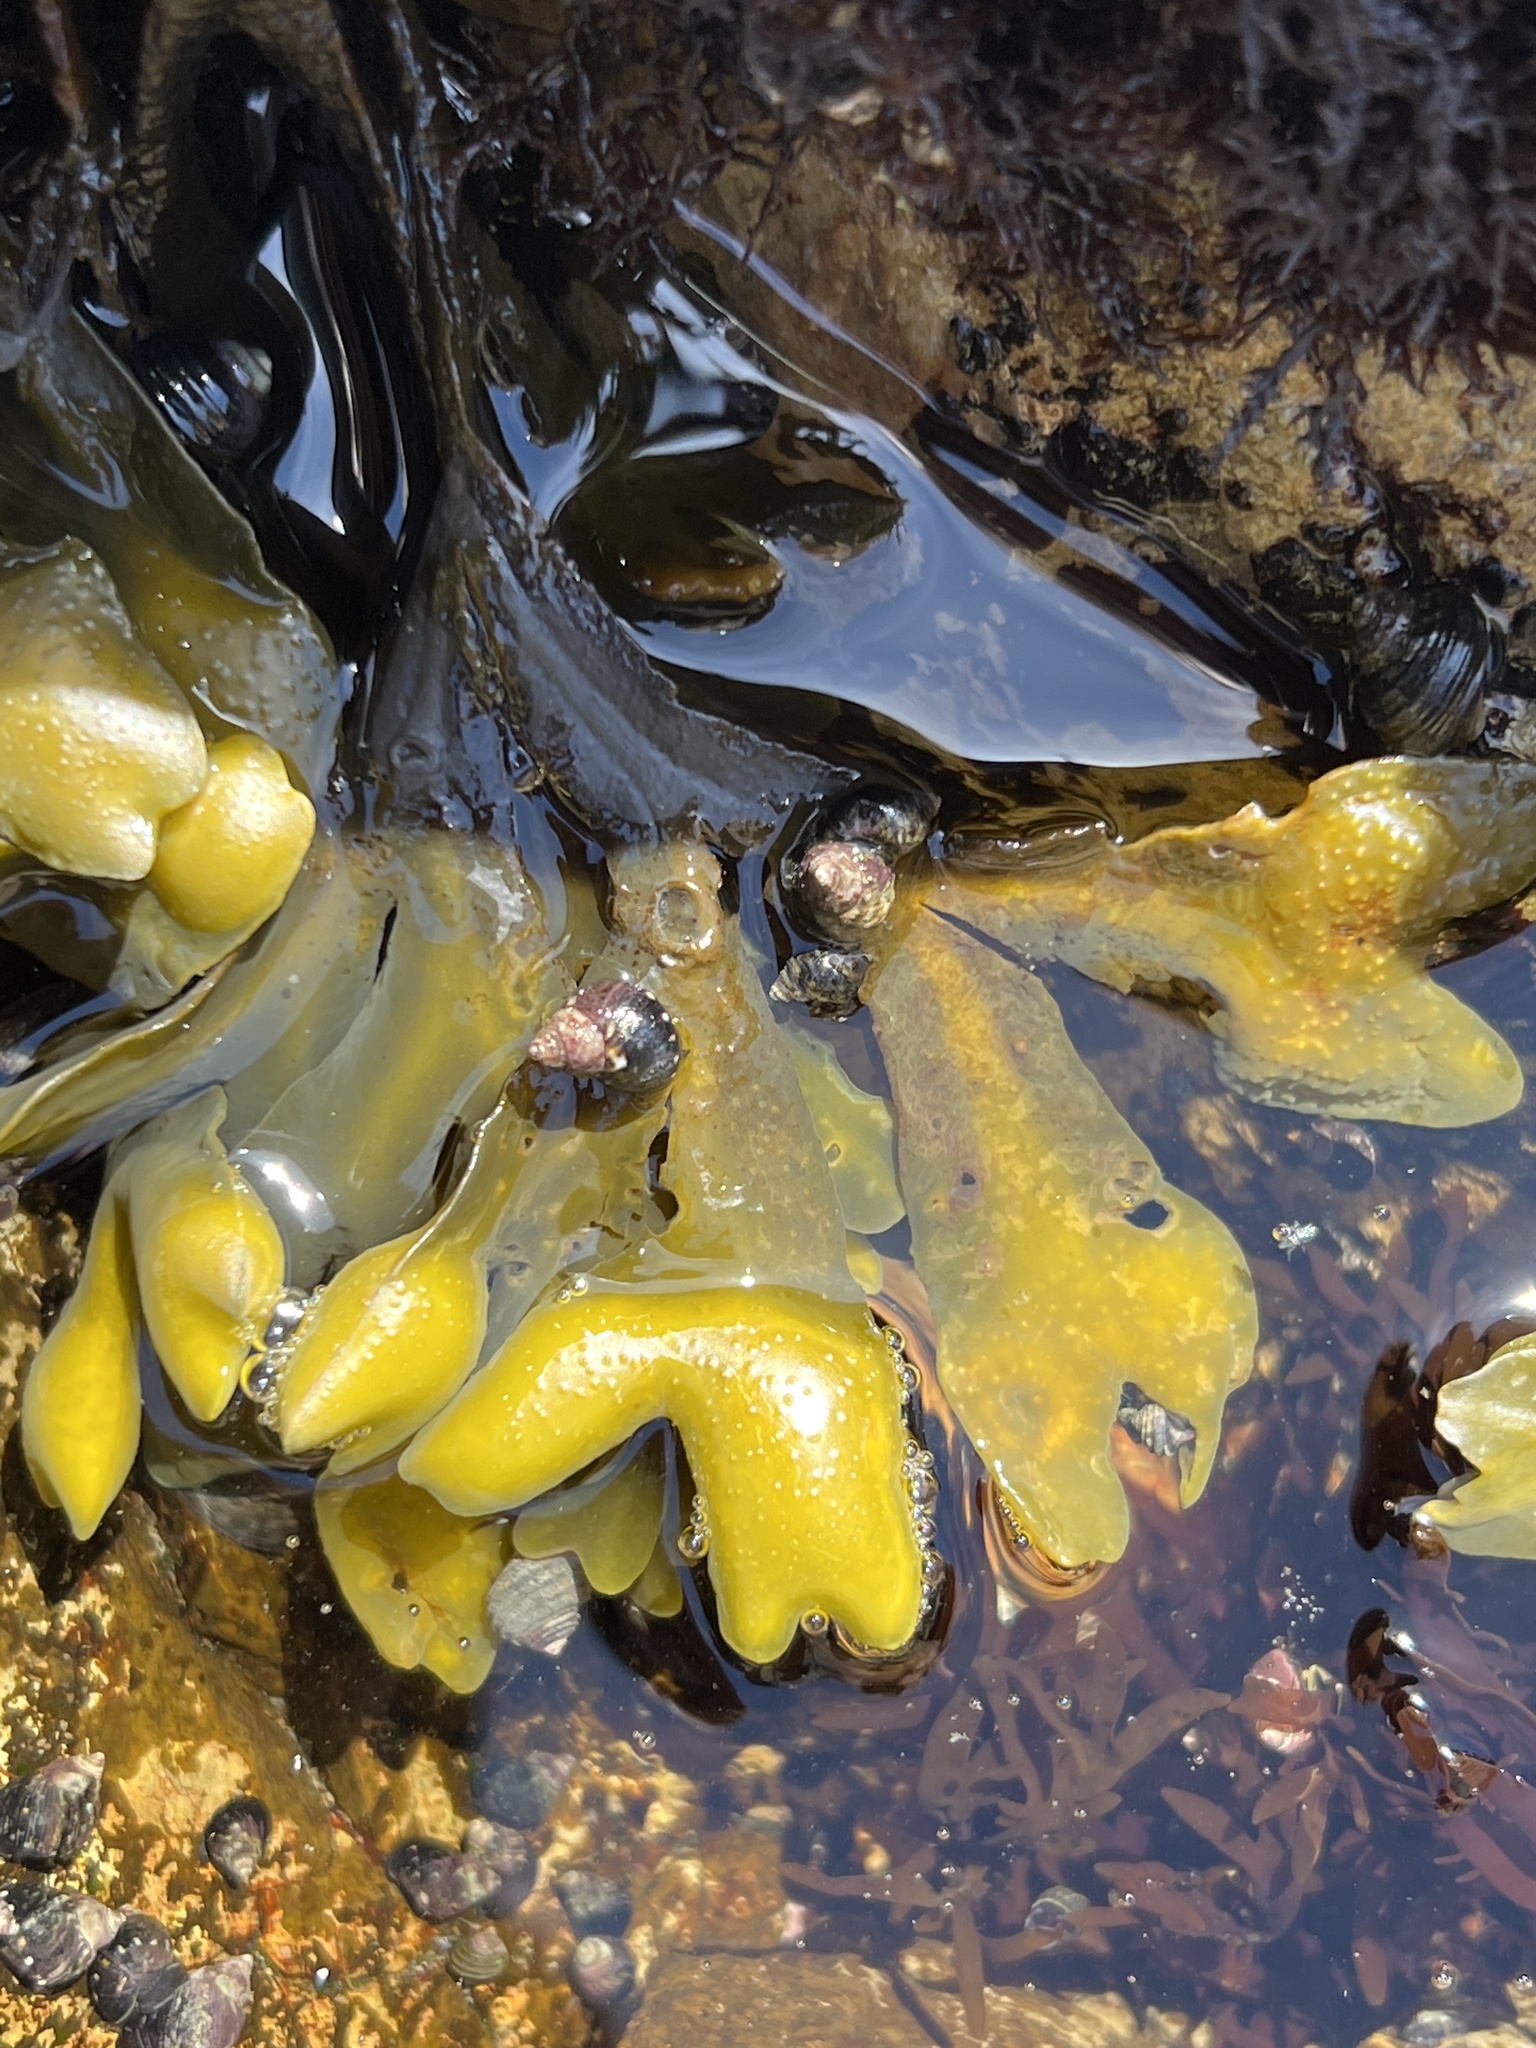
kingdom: Chromista
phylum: Ochrophyta
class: Phaeophyceae
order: Fucales
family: Fucaceae
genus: Fucus
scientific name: Fucus distichus
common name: Rockweed
